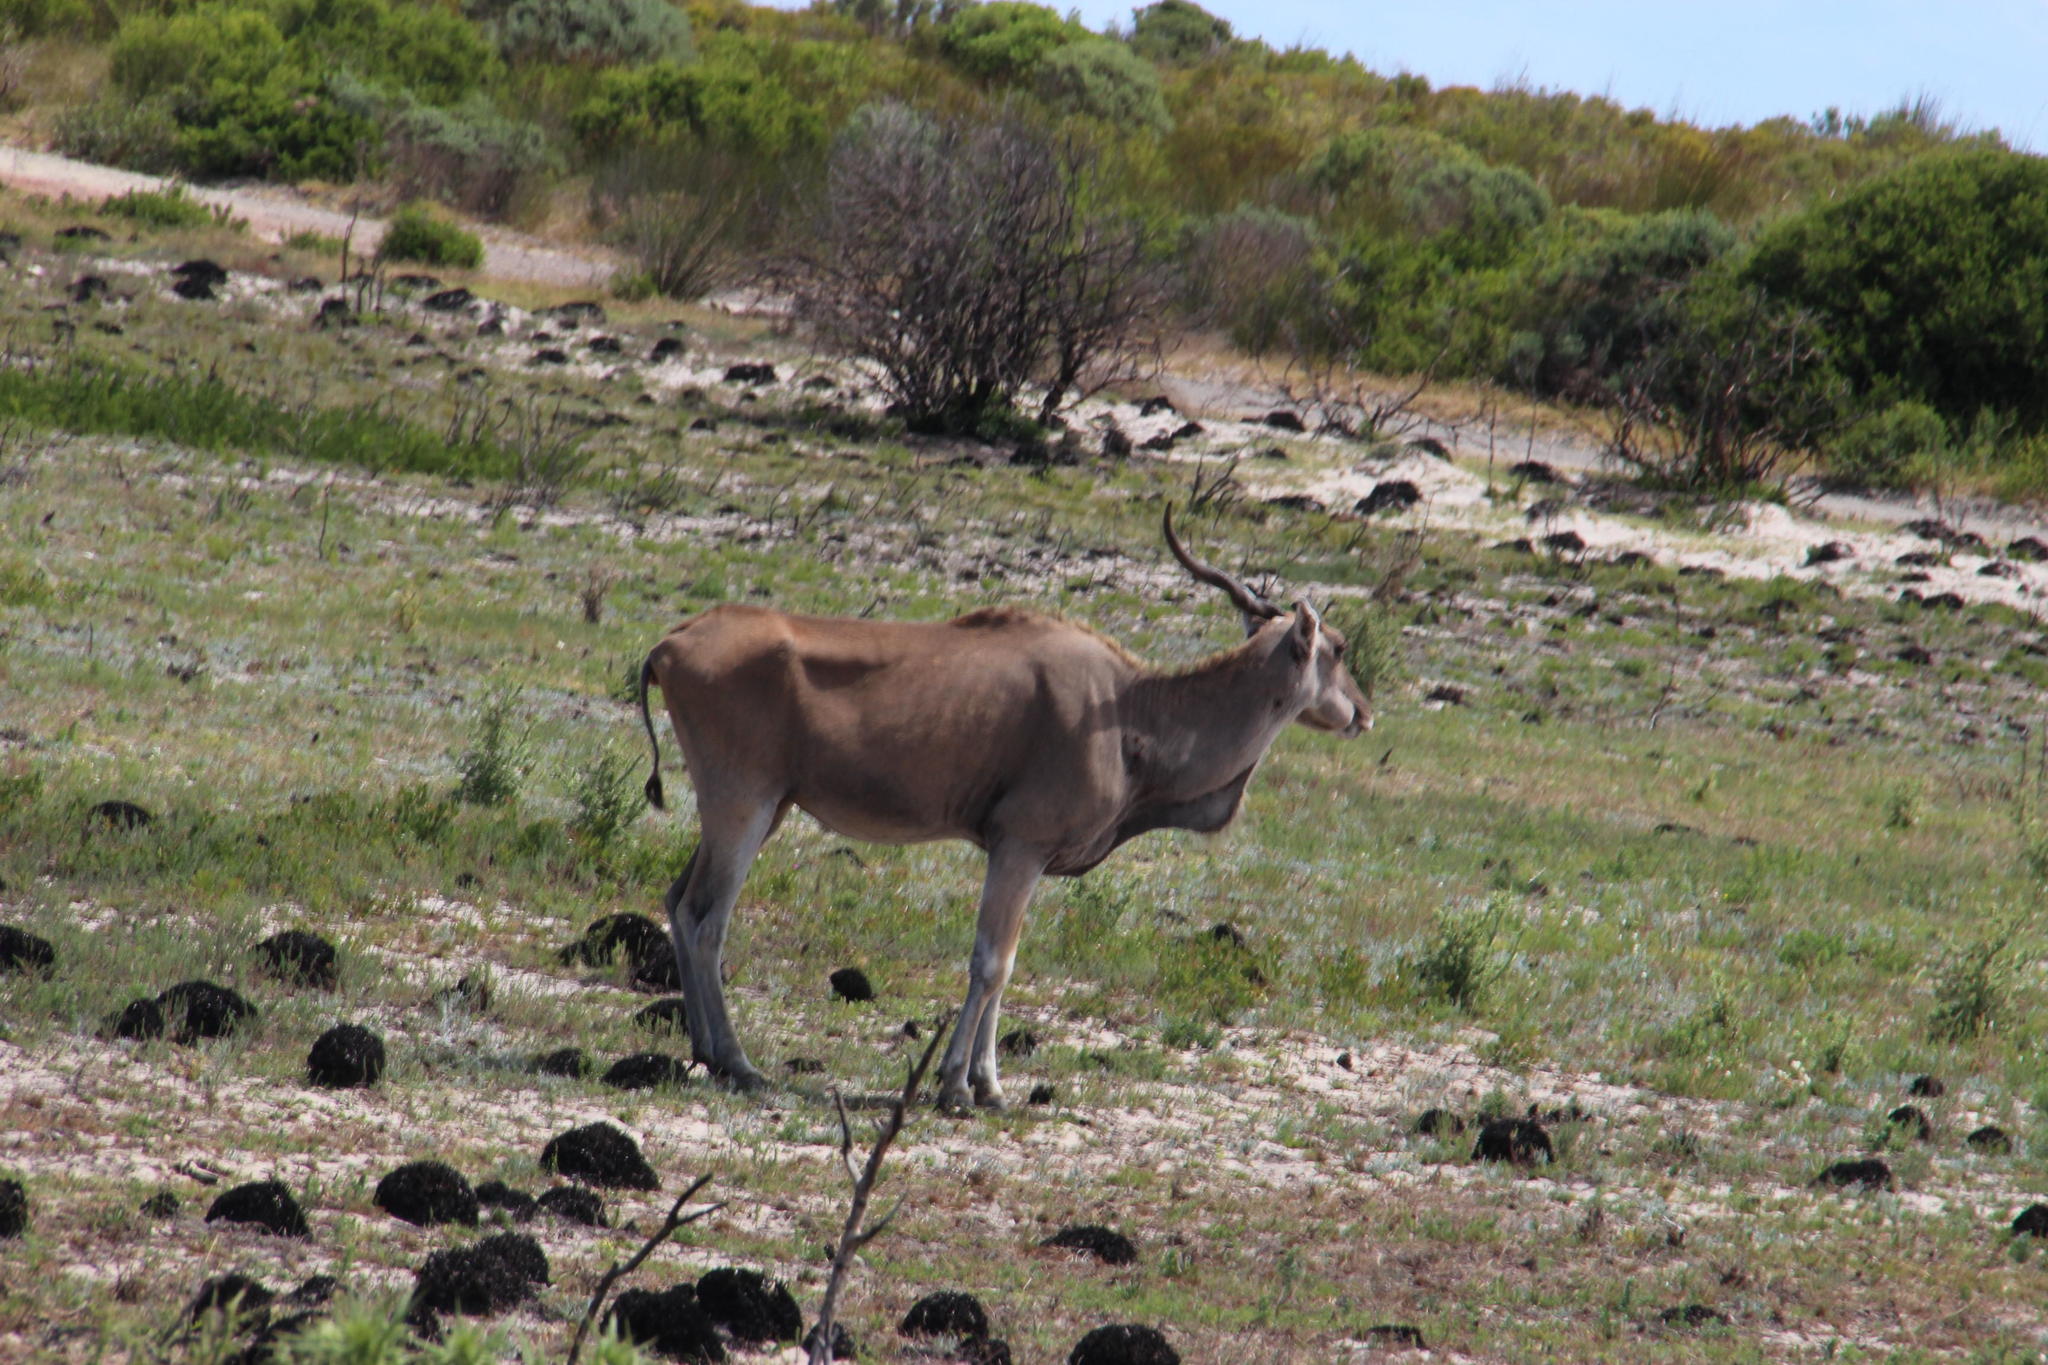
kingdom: Animalia
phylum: Chordata
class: Mammalia
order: Artiodactyla
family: Bovidae
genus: Taurotragus
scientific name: Taurotragus oryx
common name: Common eland
